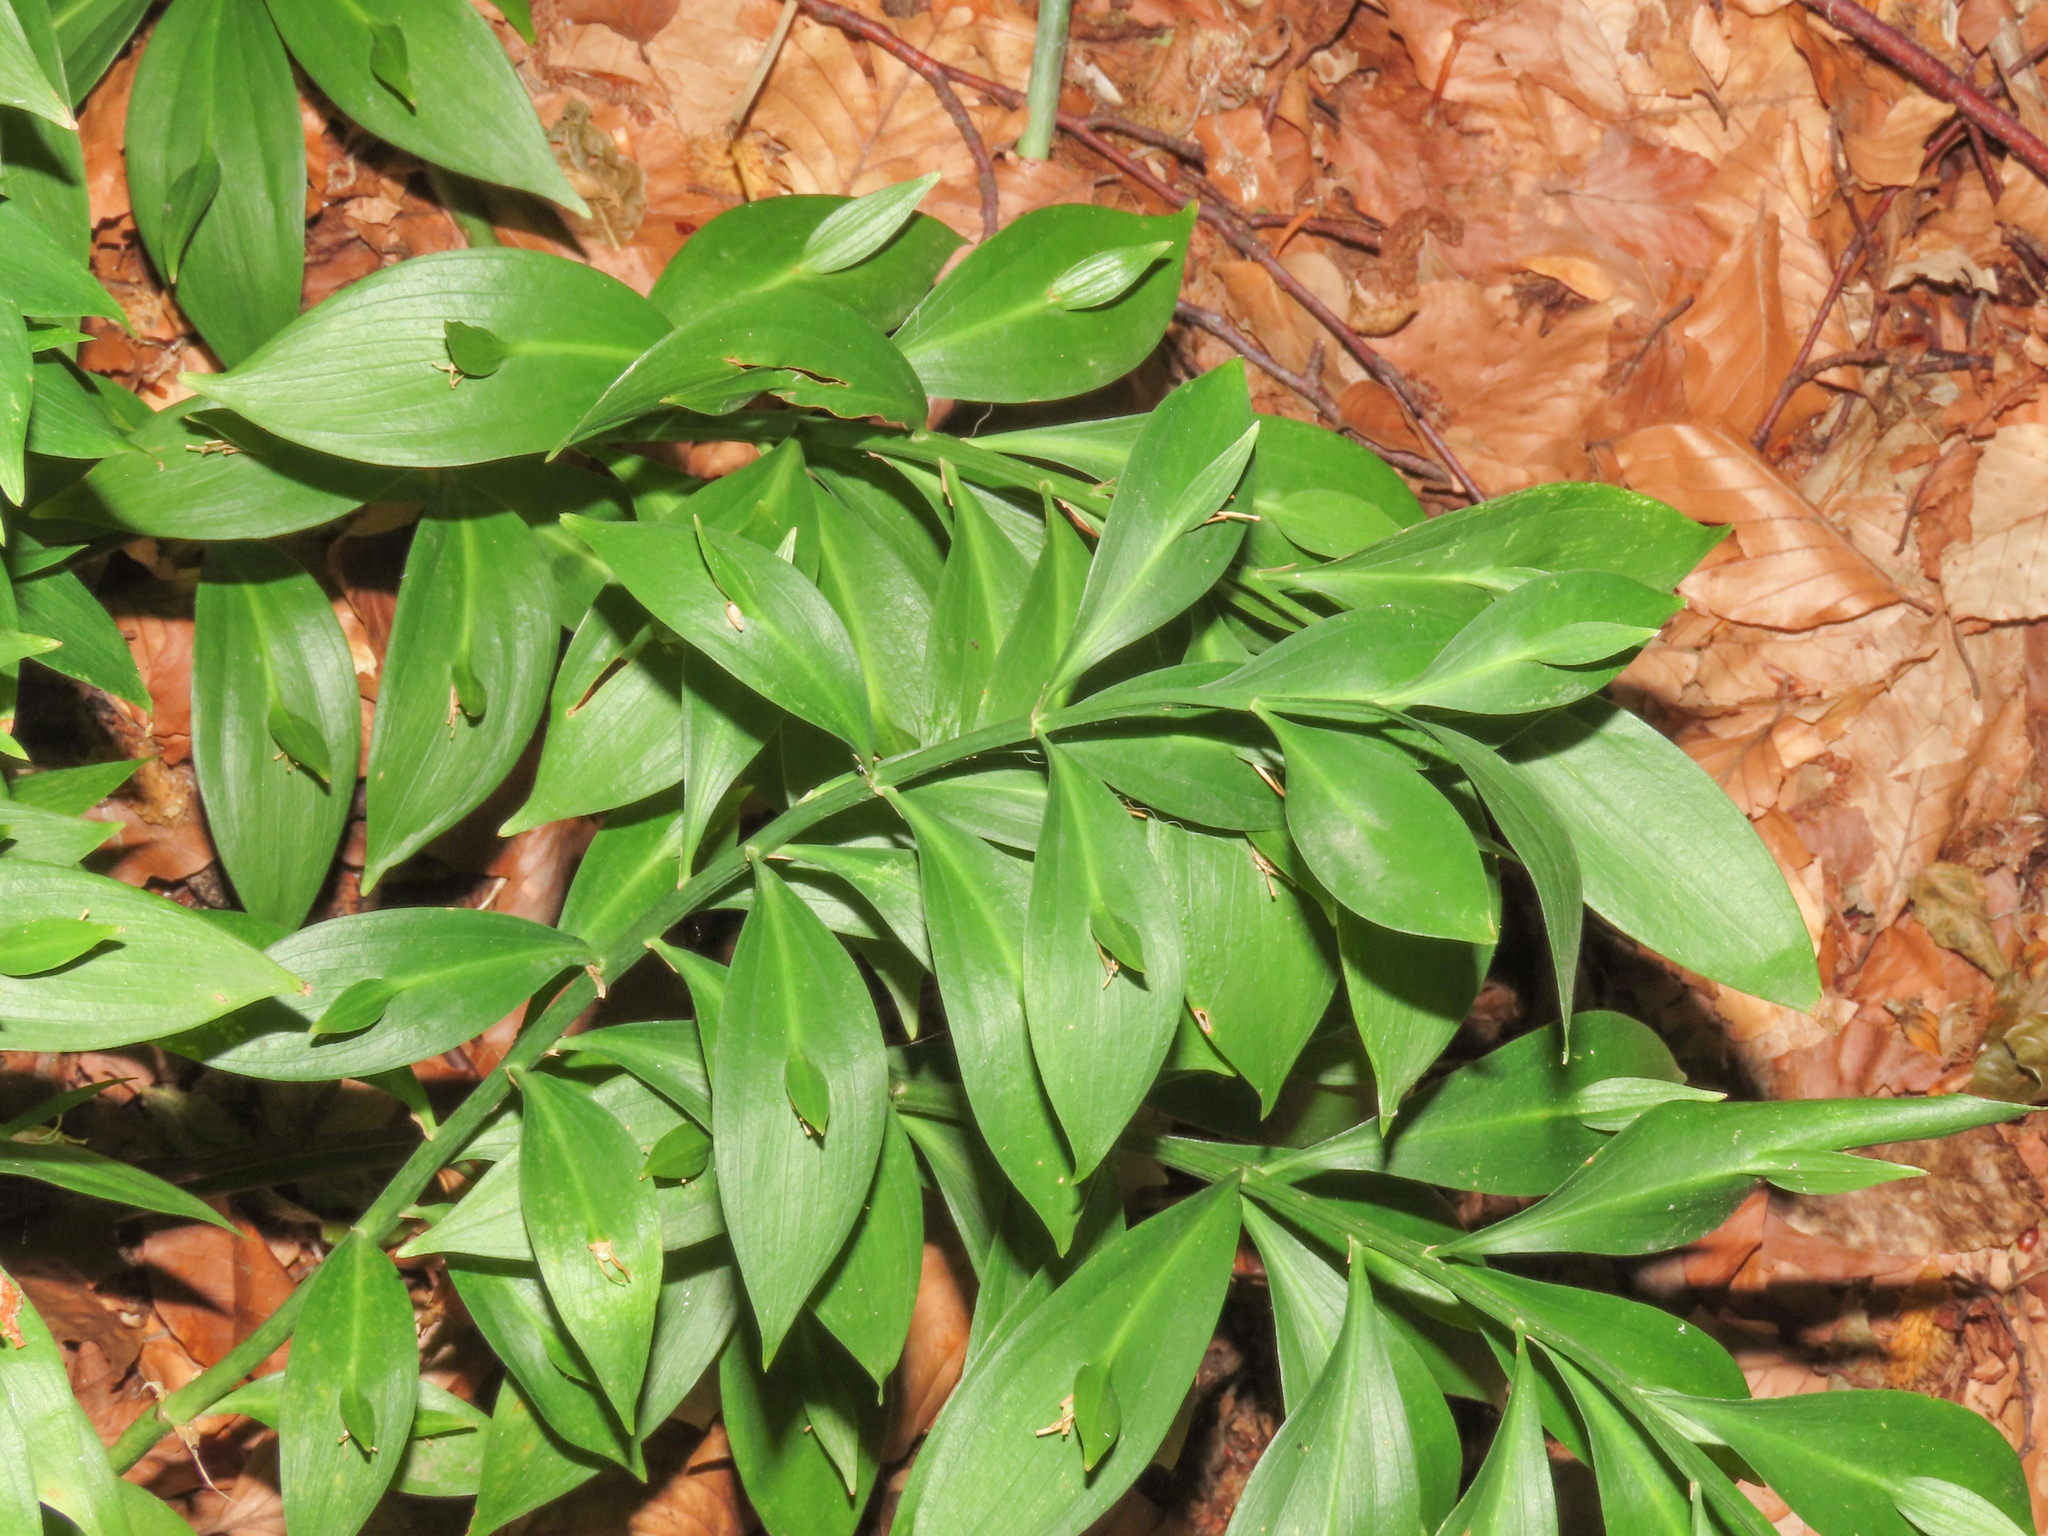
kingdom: Plantae
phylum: Tracheophyta
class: Liliopsida
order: Asparagales
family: Asparagaceae
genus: Ruscus
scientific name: Ruscus hypoglossum
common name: Spineless butcher's-broom
